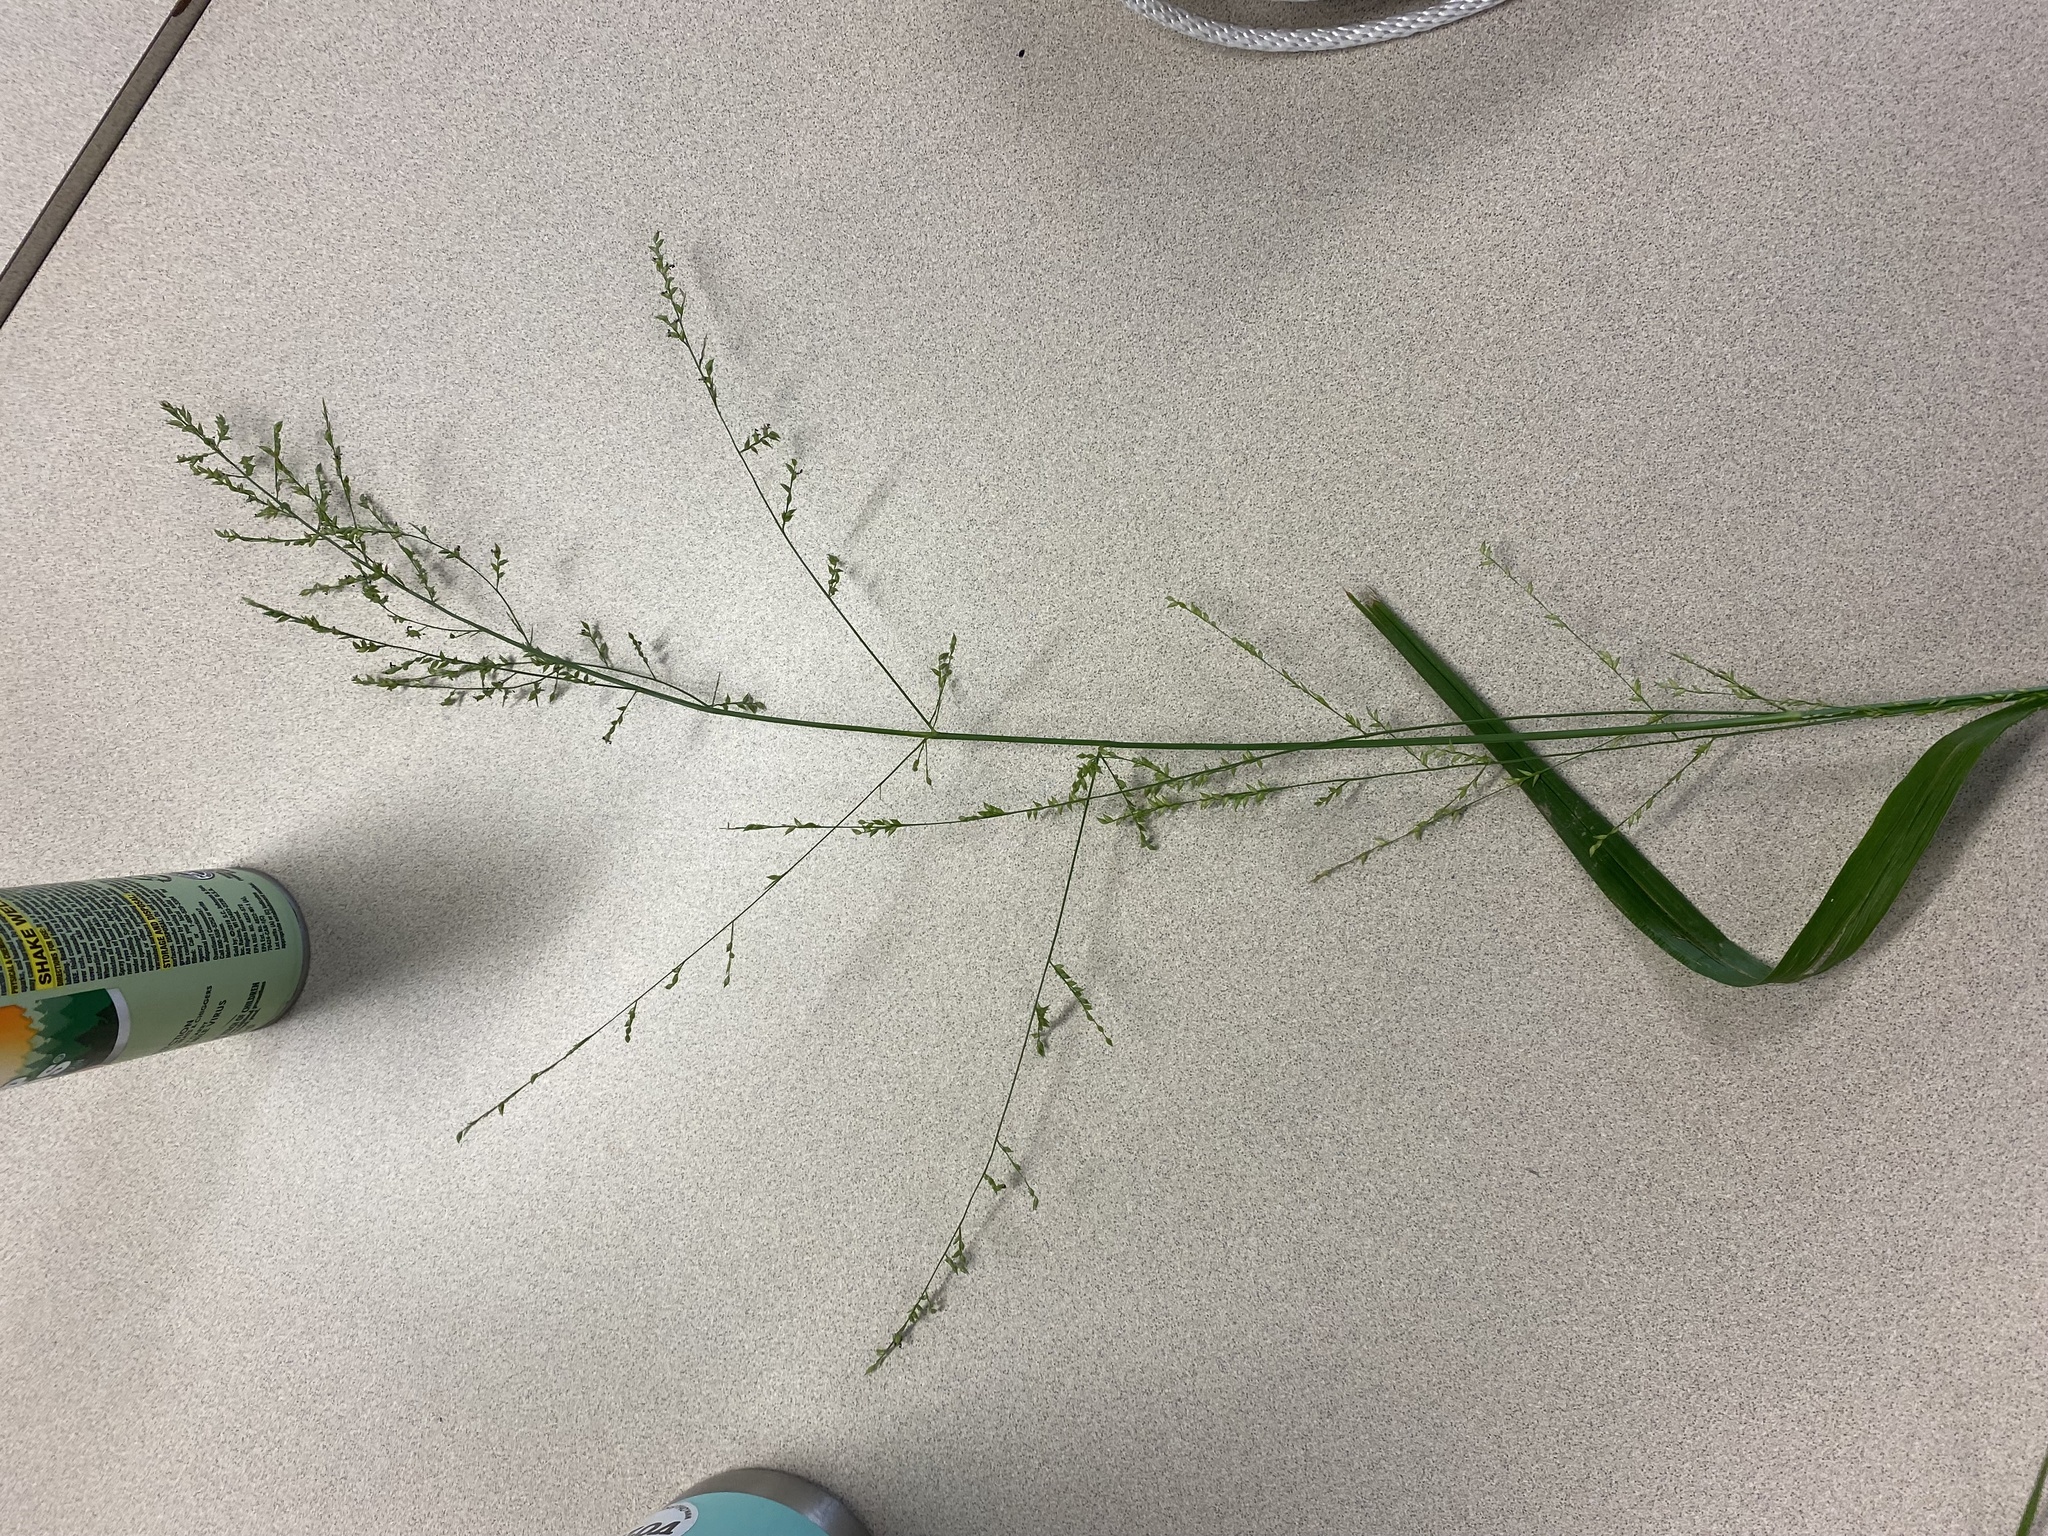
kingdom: Plantae
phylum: Tracheophyta
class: Liliopsida
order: Poales
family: Poaceae
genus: Coleataenia
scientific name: Coleataenia anceps
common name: Beaked panic grass
